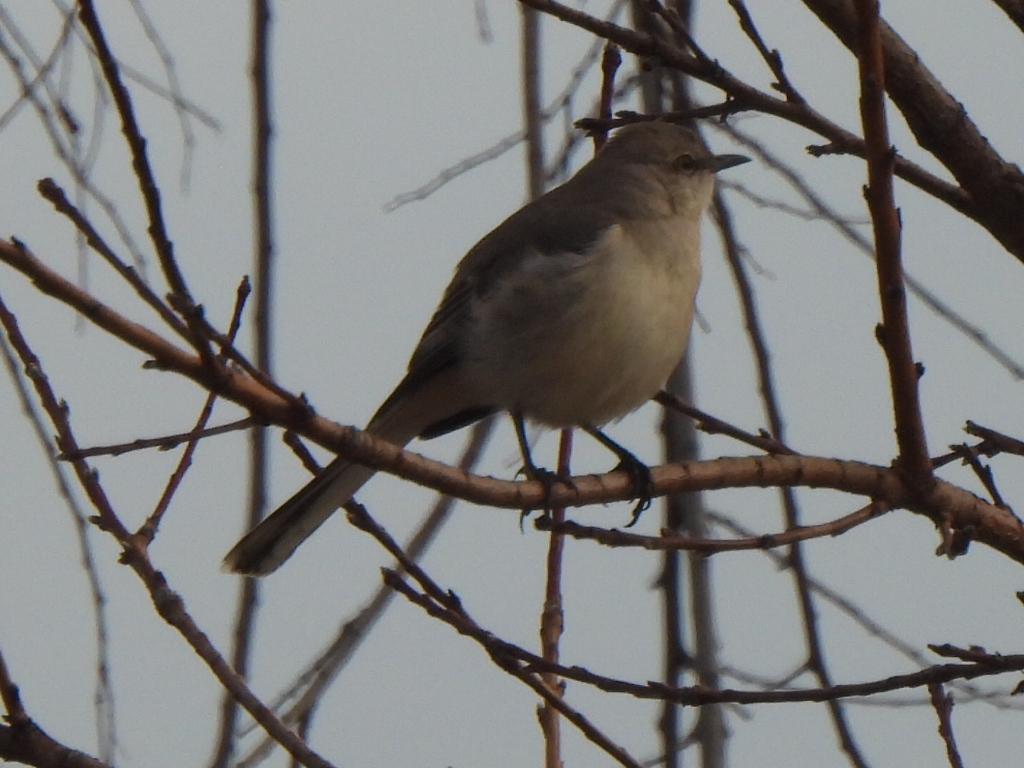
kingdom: Animalia
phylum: Chordata
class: Aves
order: Passeriformes
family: Mimidae
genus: Mimus
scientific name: Mimus polyglottos
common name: Northern mockingbird
